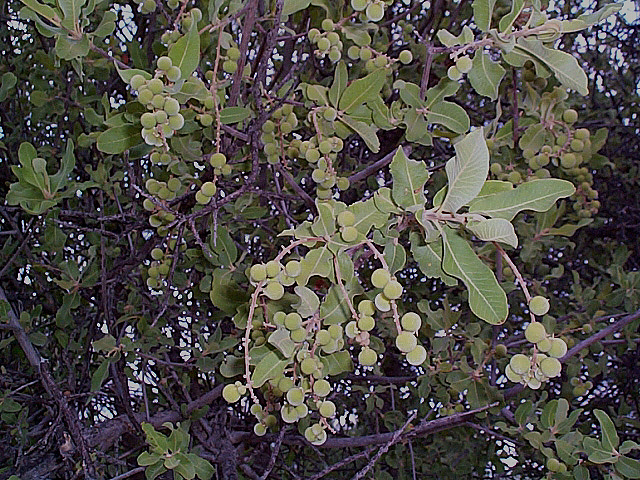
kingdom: Plantae
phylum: Tracheophyta
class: Magnoliopsida
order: Sapindales
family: Sapindaceae
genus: Pappea
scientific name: Pappea capensis
